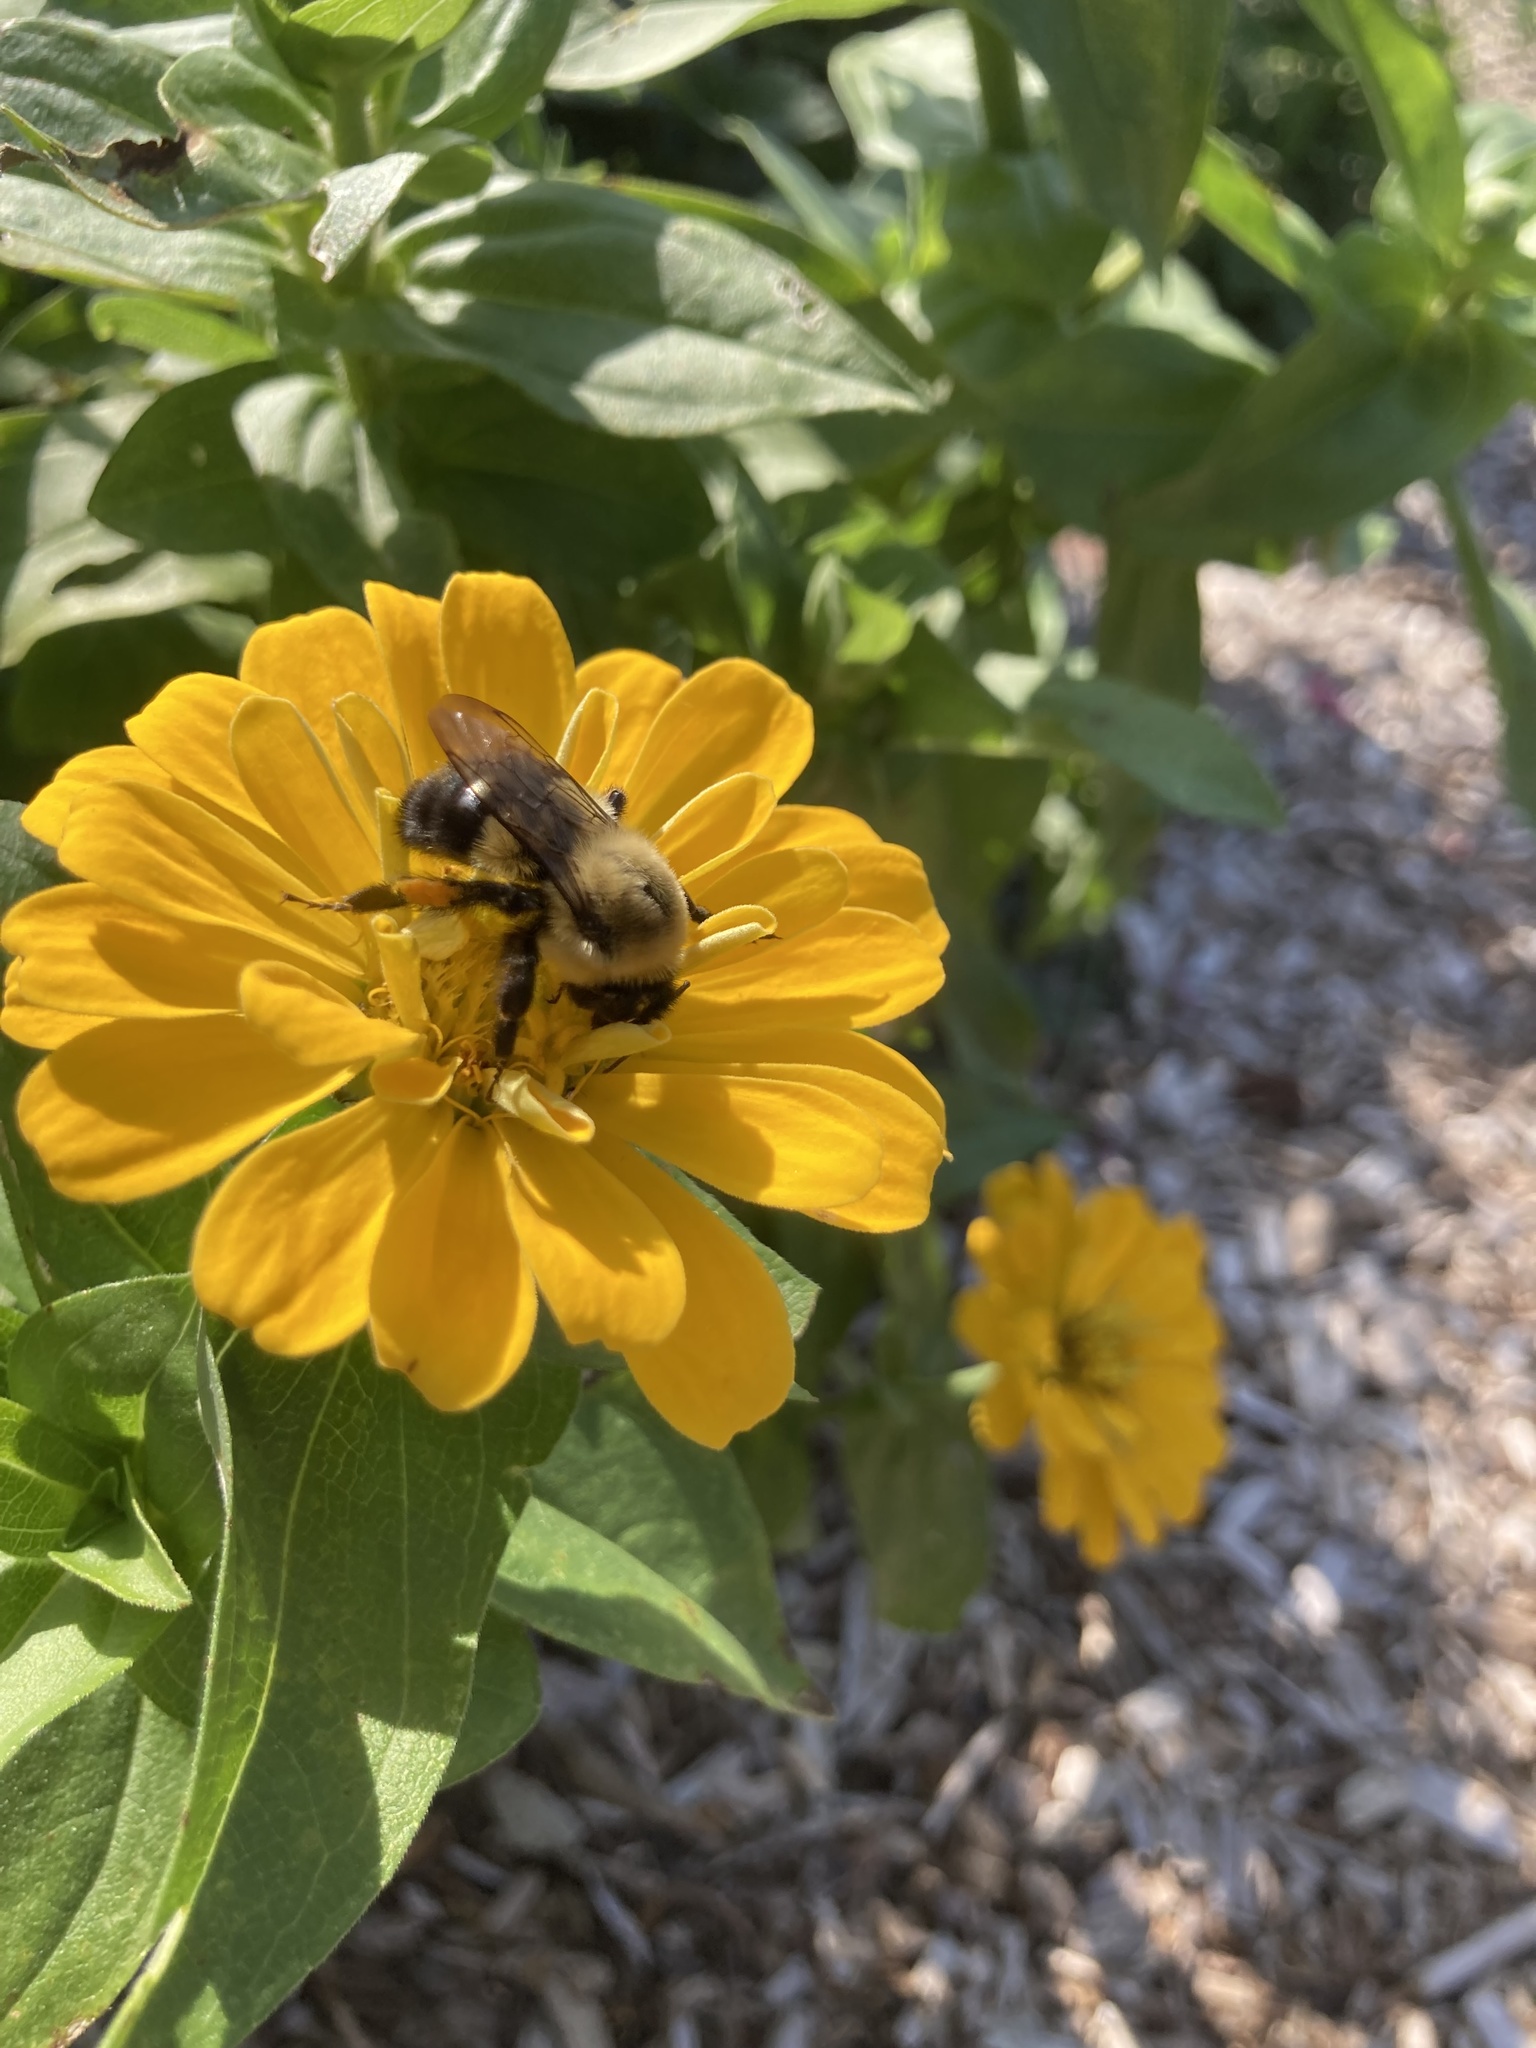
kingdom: Animalia
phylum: Arthropoda
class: Insecta
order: Hymenoptera
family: Apidae
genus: Bombus
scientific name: Bombus impatiens
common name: Common eastern bumble bee
